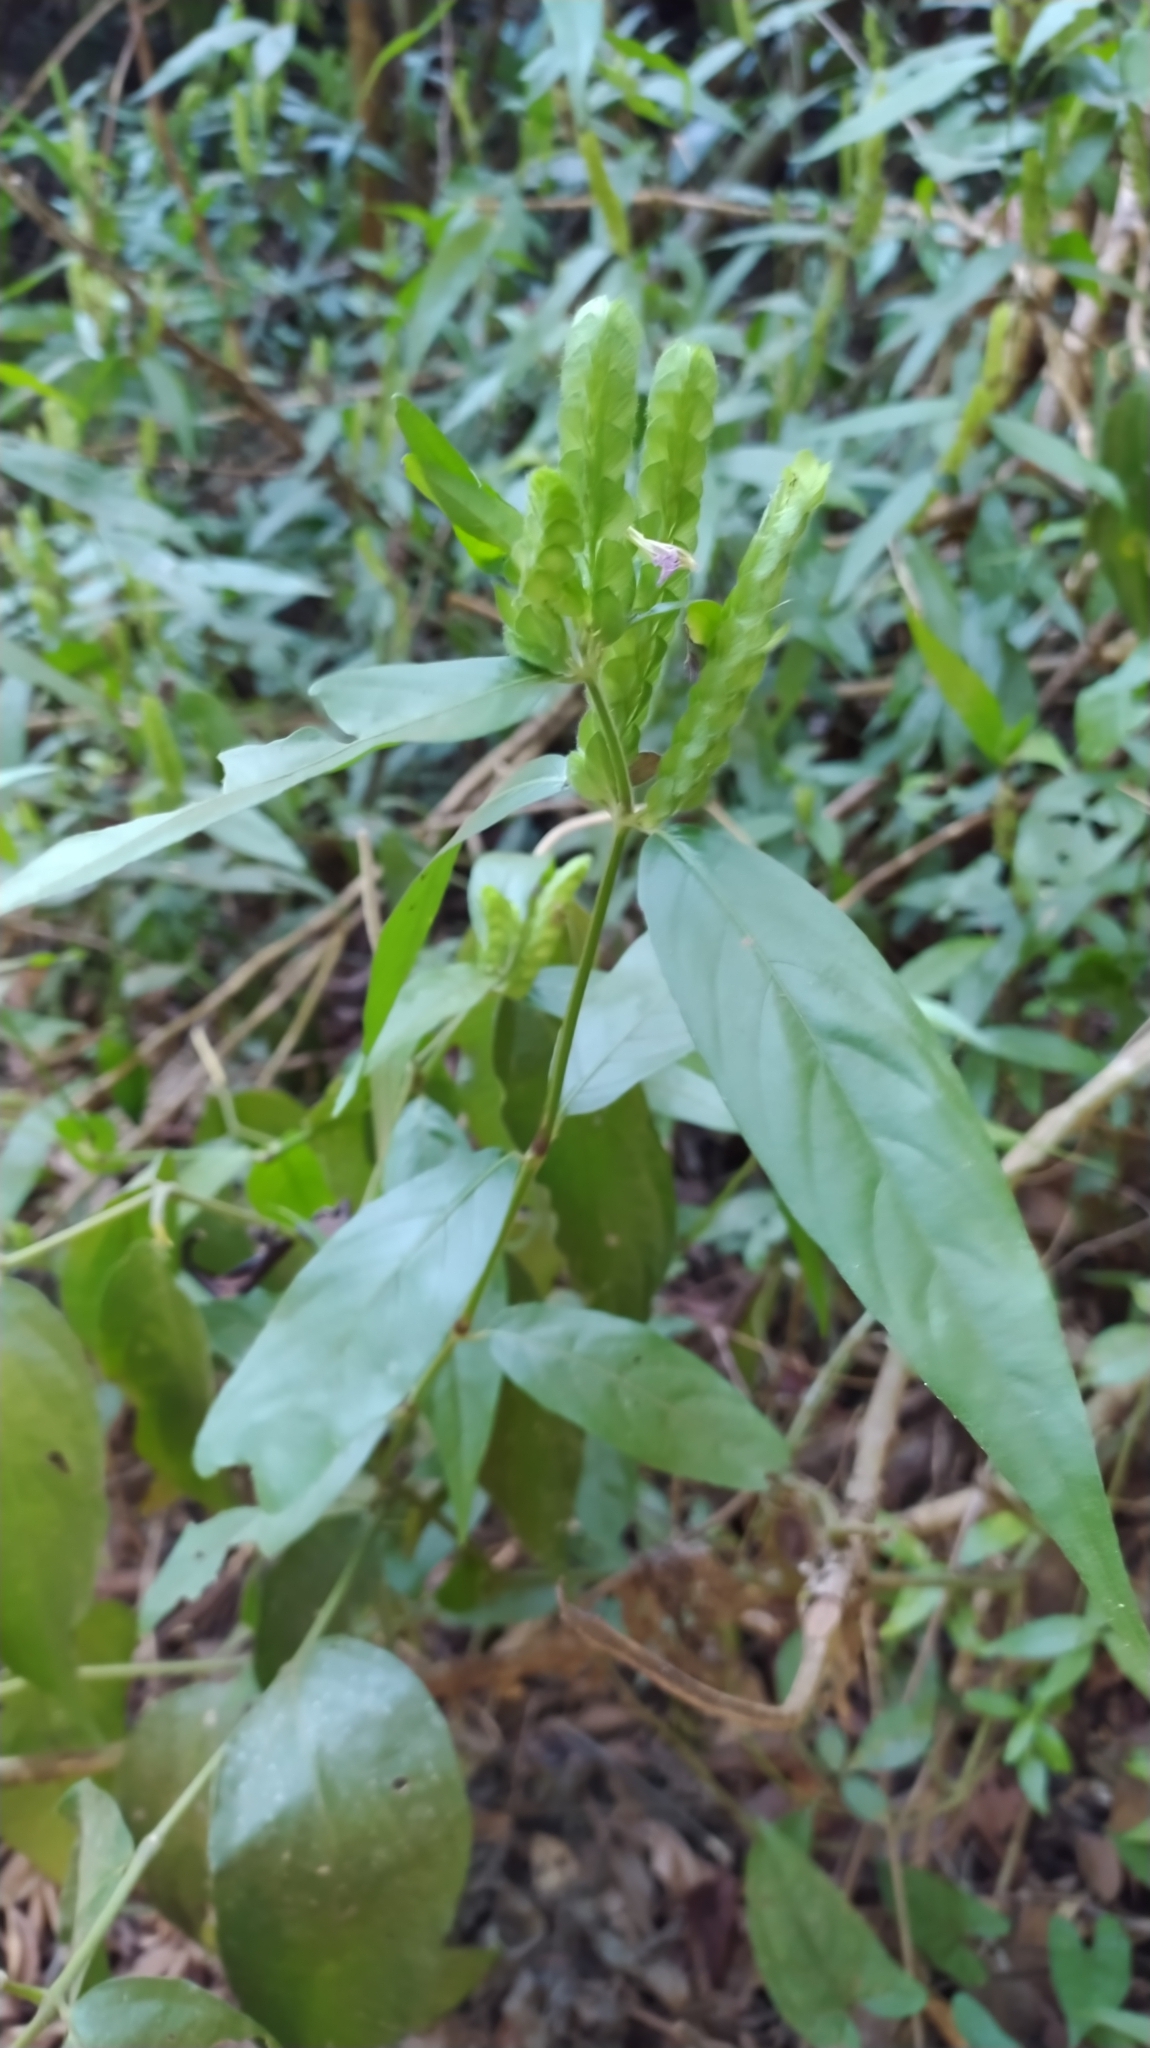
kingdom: Plantae
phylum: Tracheophyta
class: Magnoliopsida
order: Lamiales
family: Acanthaceae
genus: Justicia
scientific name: Justicia polystachya
